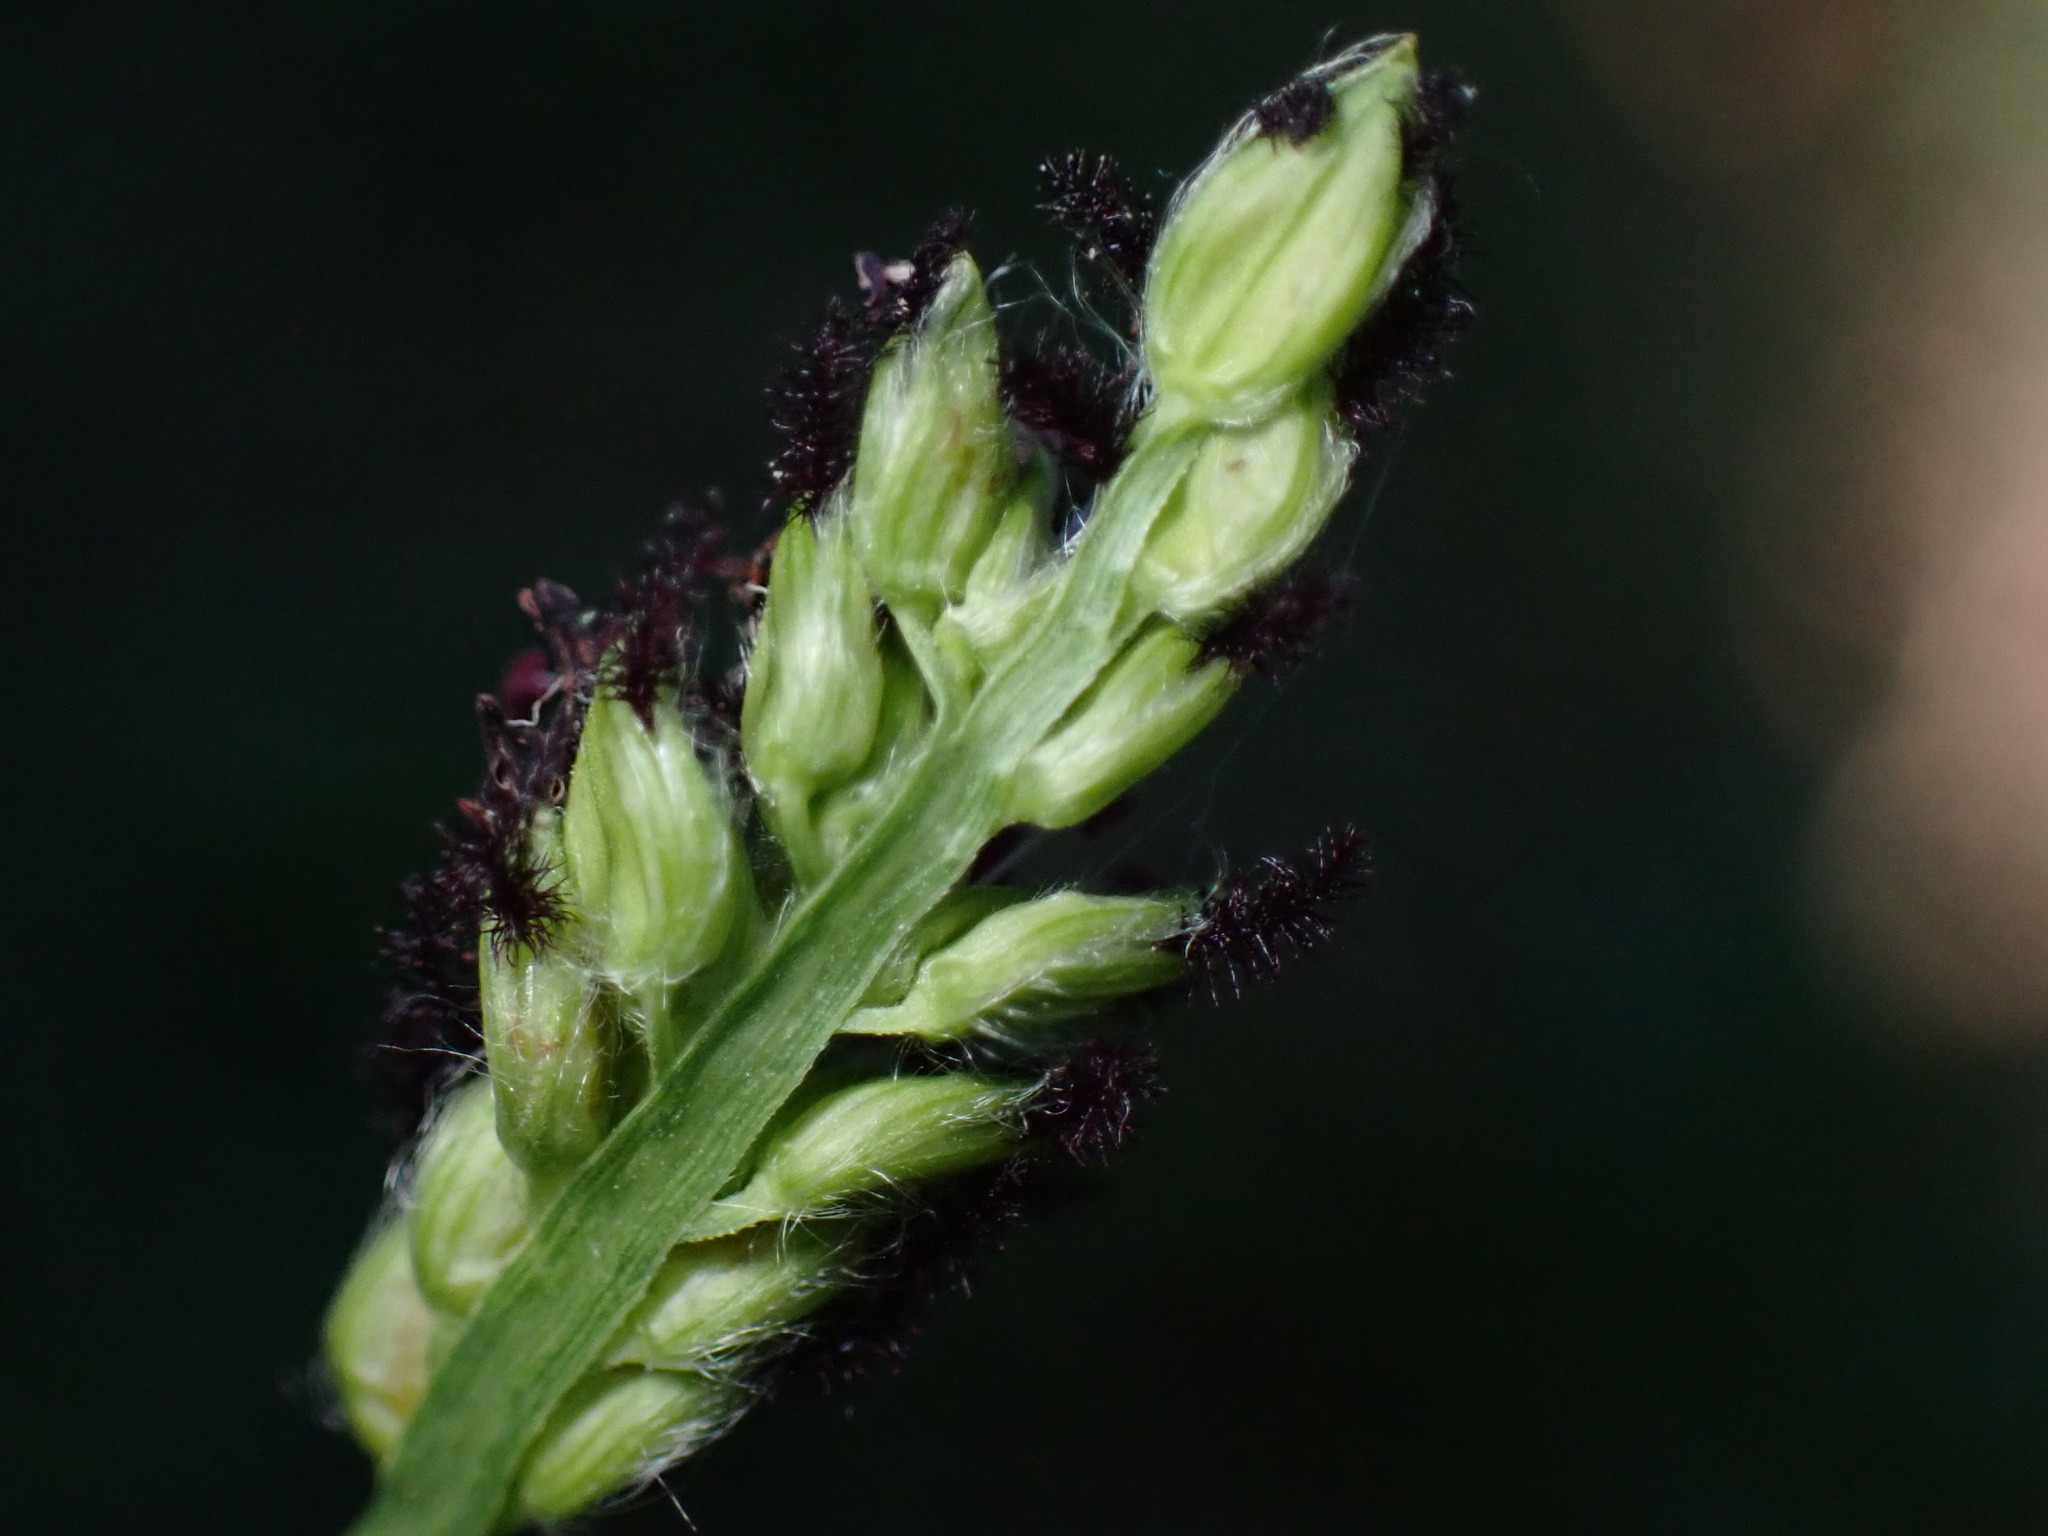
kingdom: Plantae
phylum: Tracheophyta
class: Liliopsida
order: Poales
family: Poaceae
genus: Paspalum
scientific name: Paspalum dilatatum
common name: Dallisgrass
